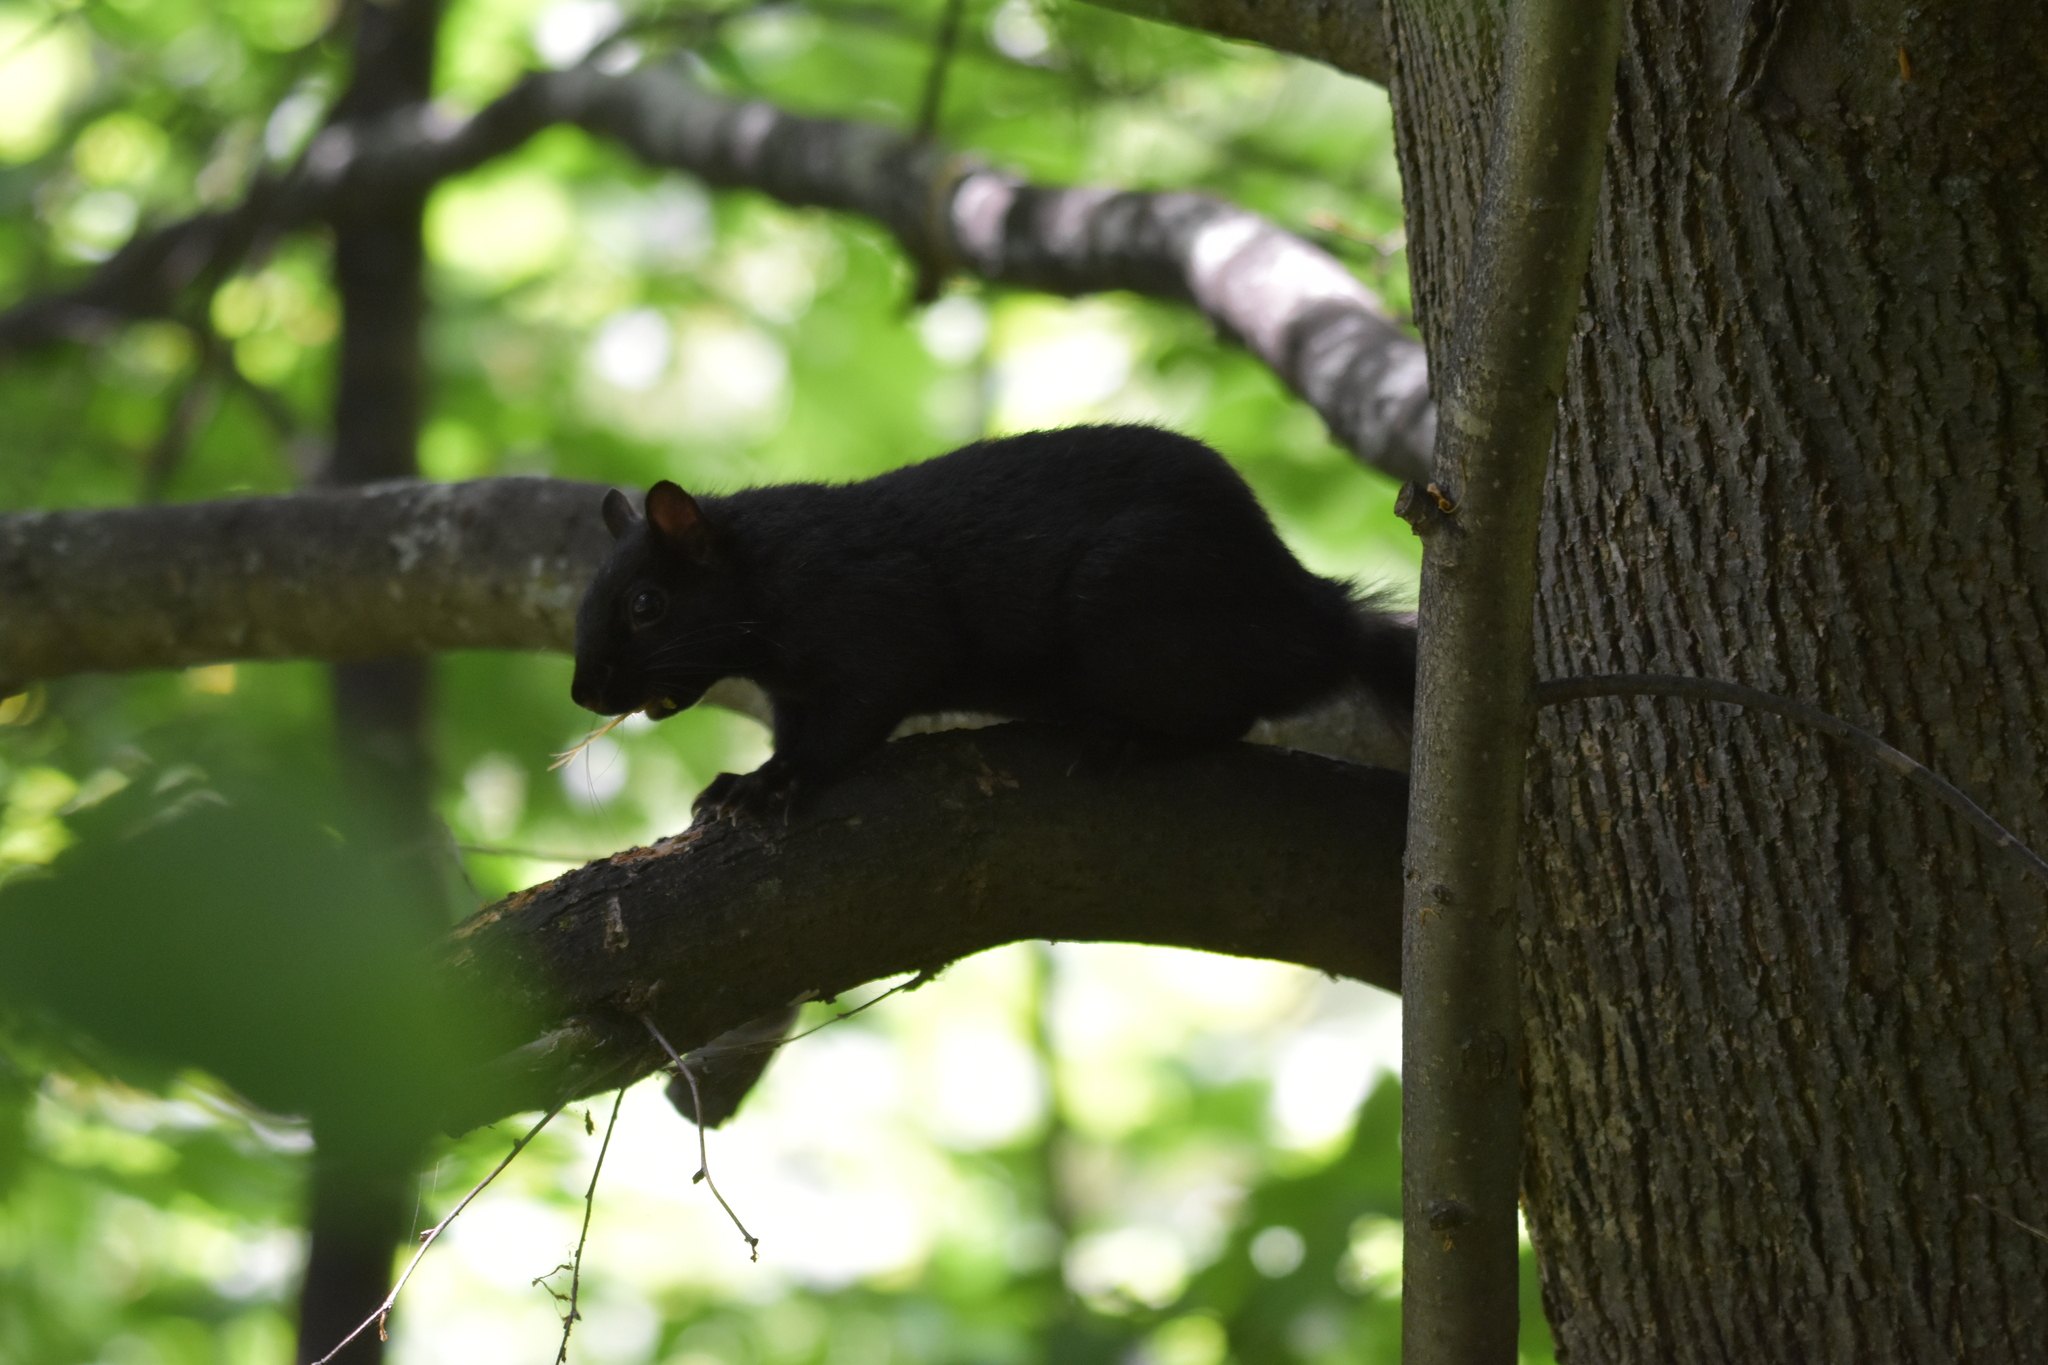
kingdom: Animalia
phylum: Chordata
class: Mammalia
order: Rodentia
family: Sciuridae
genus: Sciurus
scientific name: Sciurus carolinensis
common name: Eastern gray squirrel
